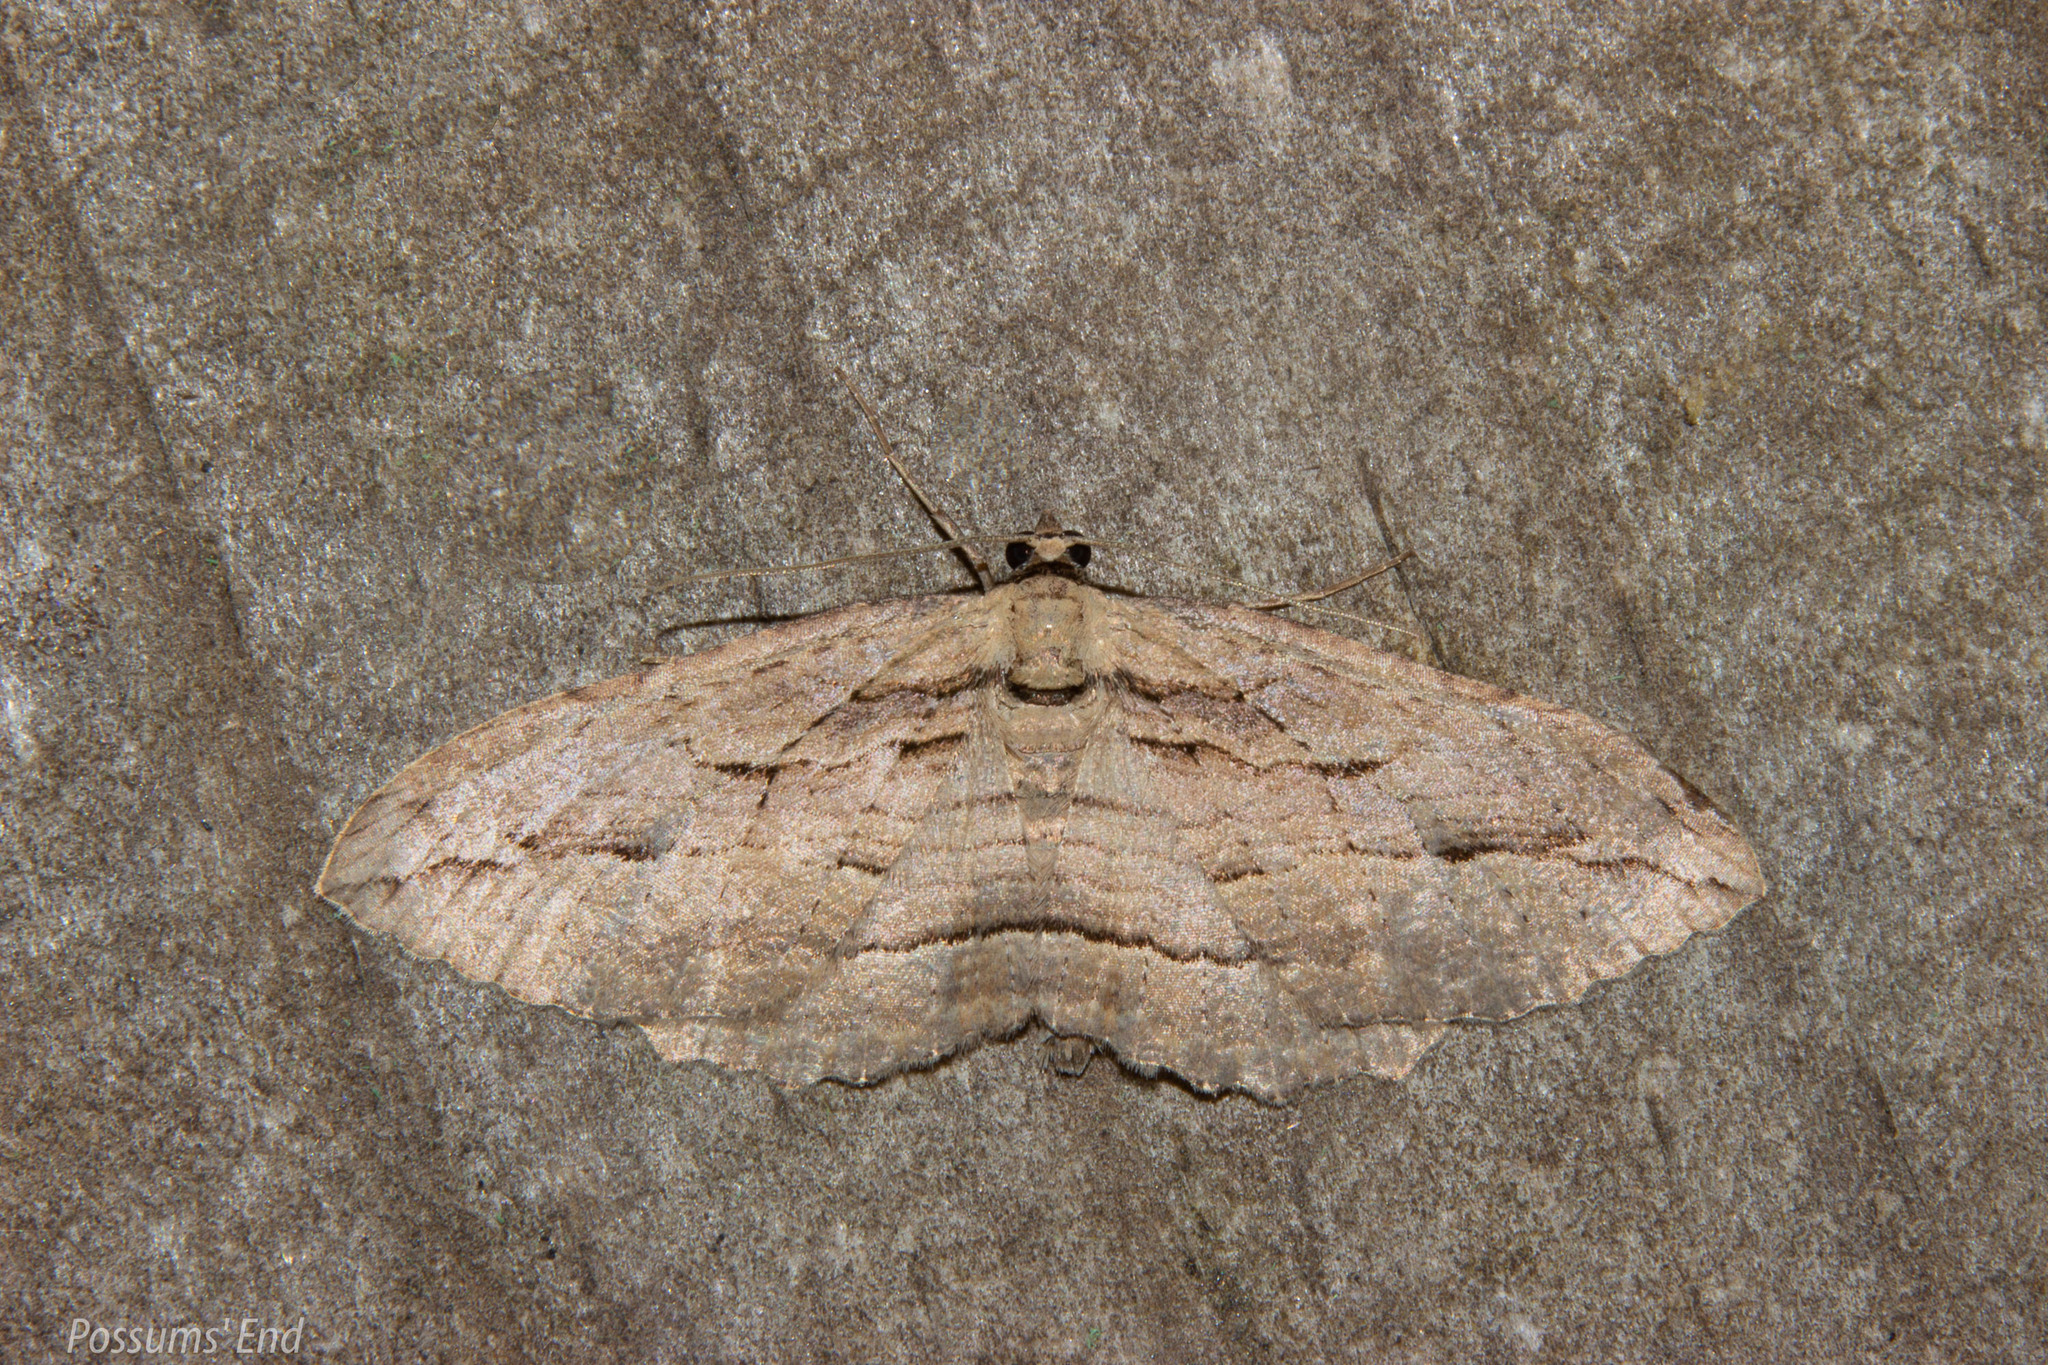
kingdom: Animalia
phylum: Arthropoda
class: Insecta
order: Lepidoptera
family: Geometridae
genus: Austrocidaria
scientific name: Austrocidaria gobiata
